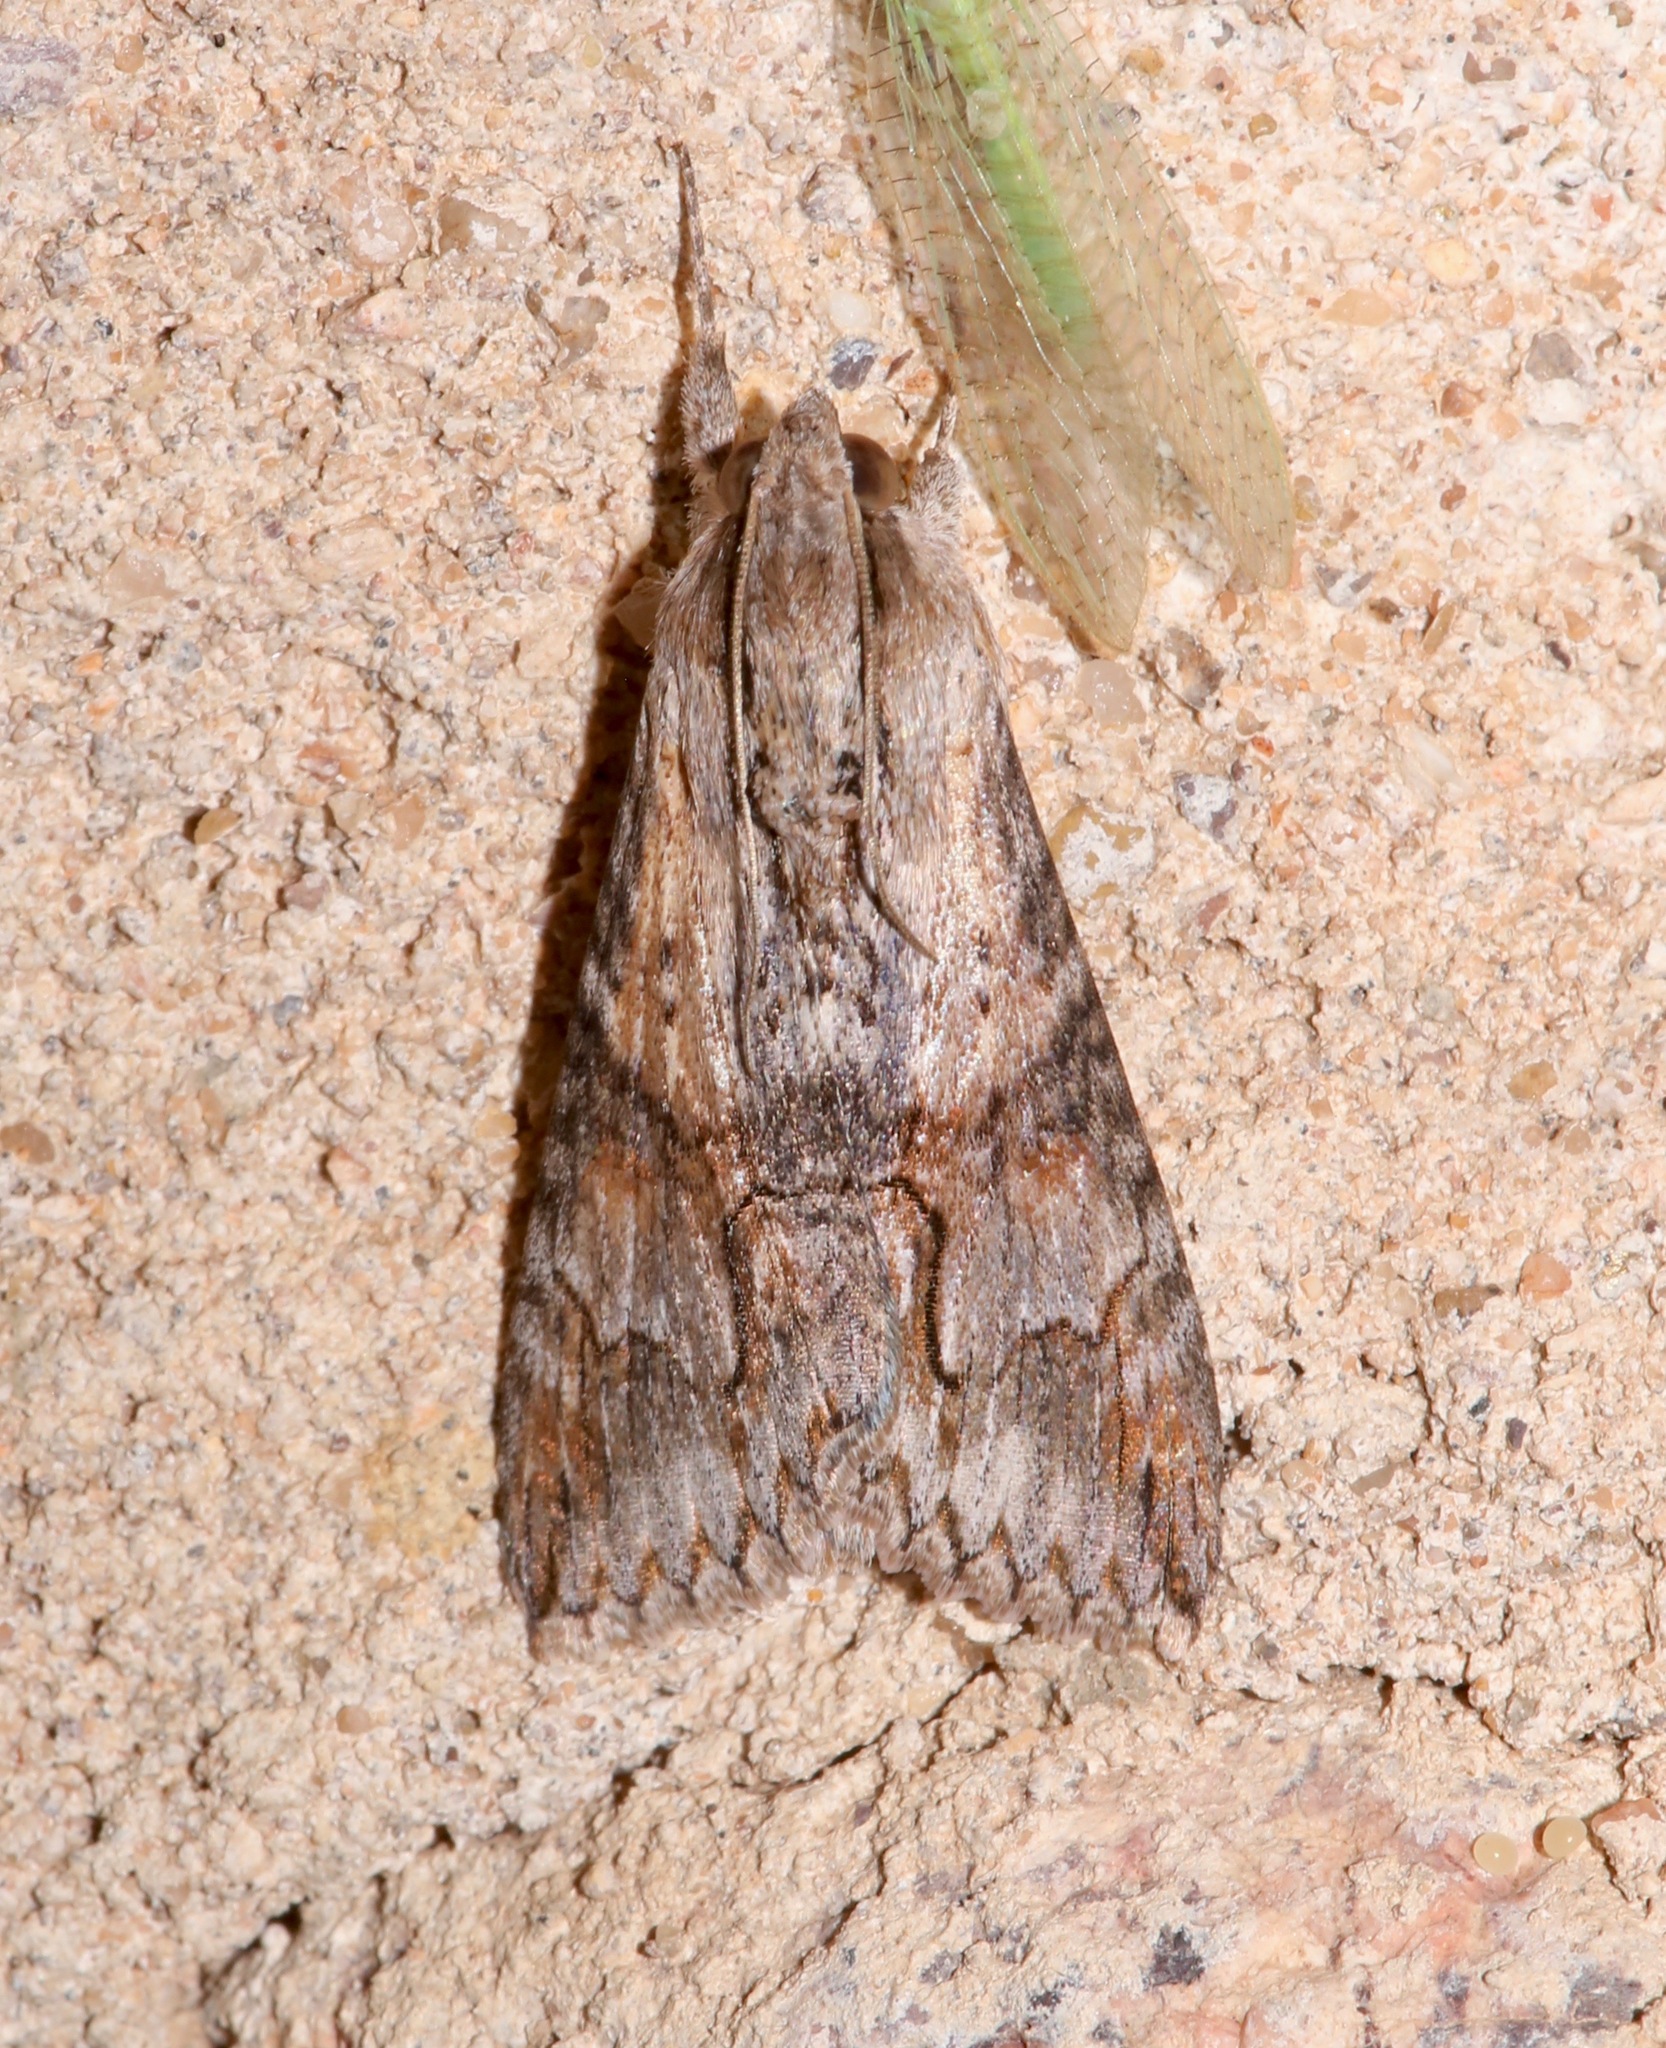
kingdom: Animalia
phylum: Arthropoda
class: Insecta
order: Lepidoptera
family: Erebidae
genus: Melipotis
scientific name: Melipotis acontioides
